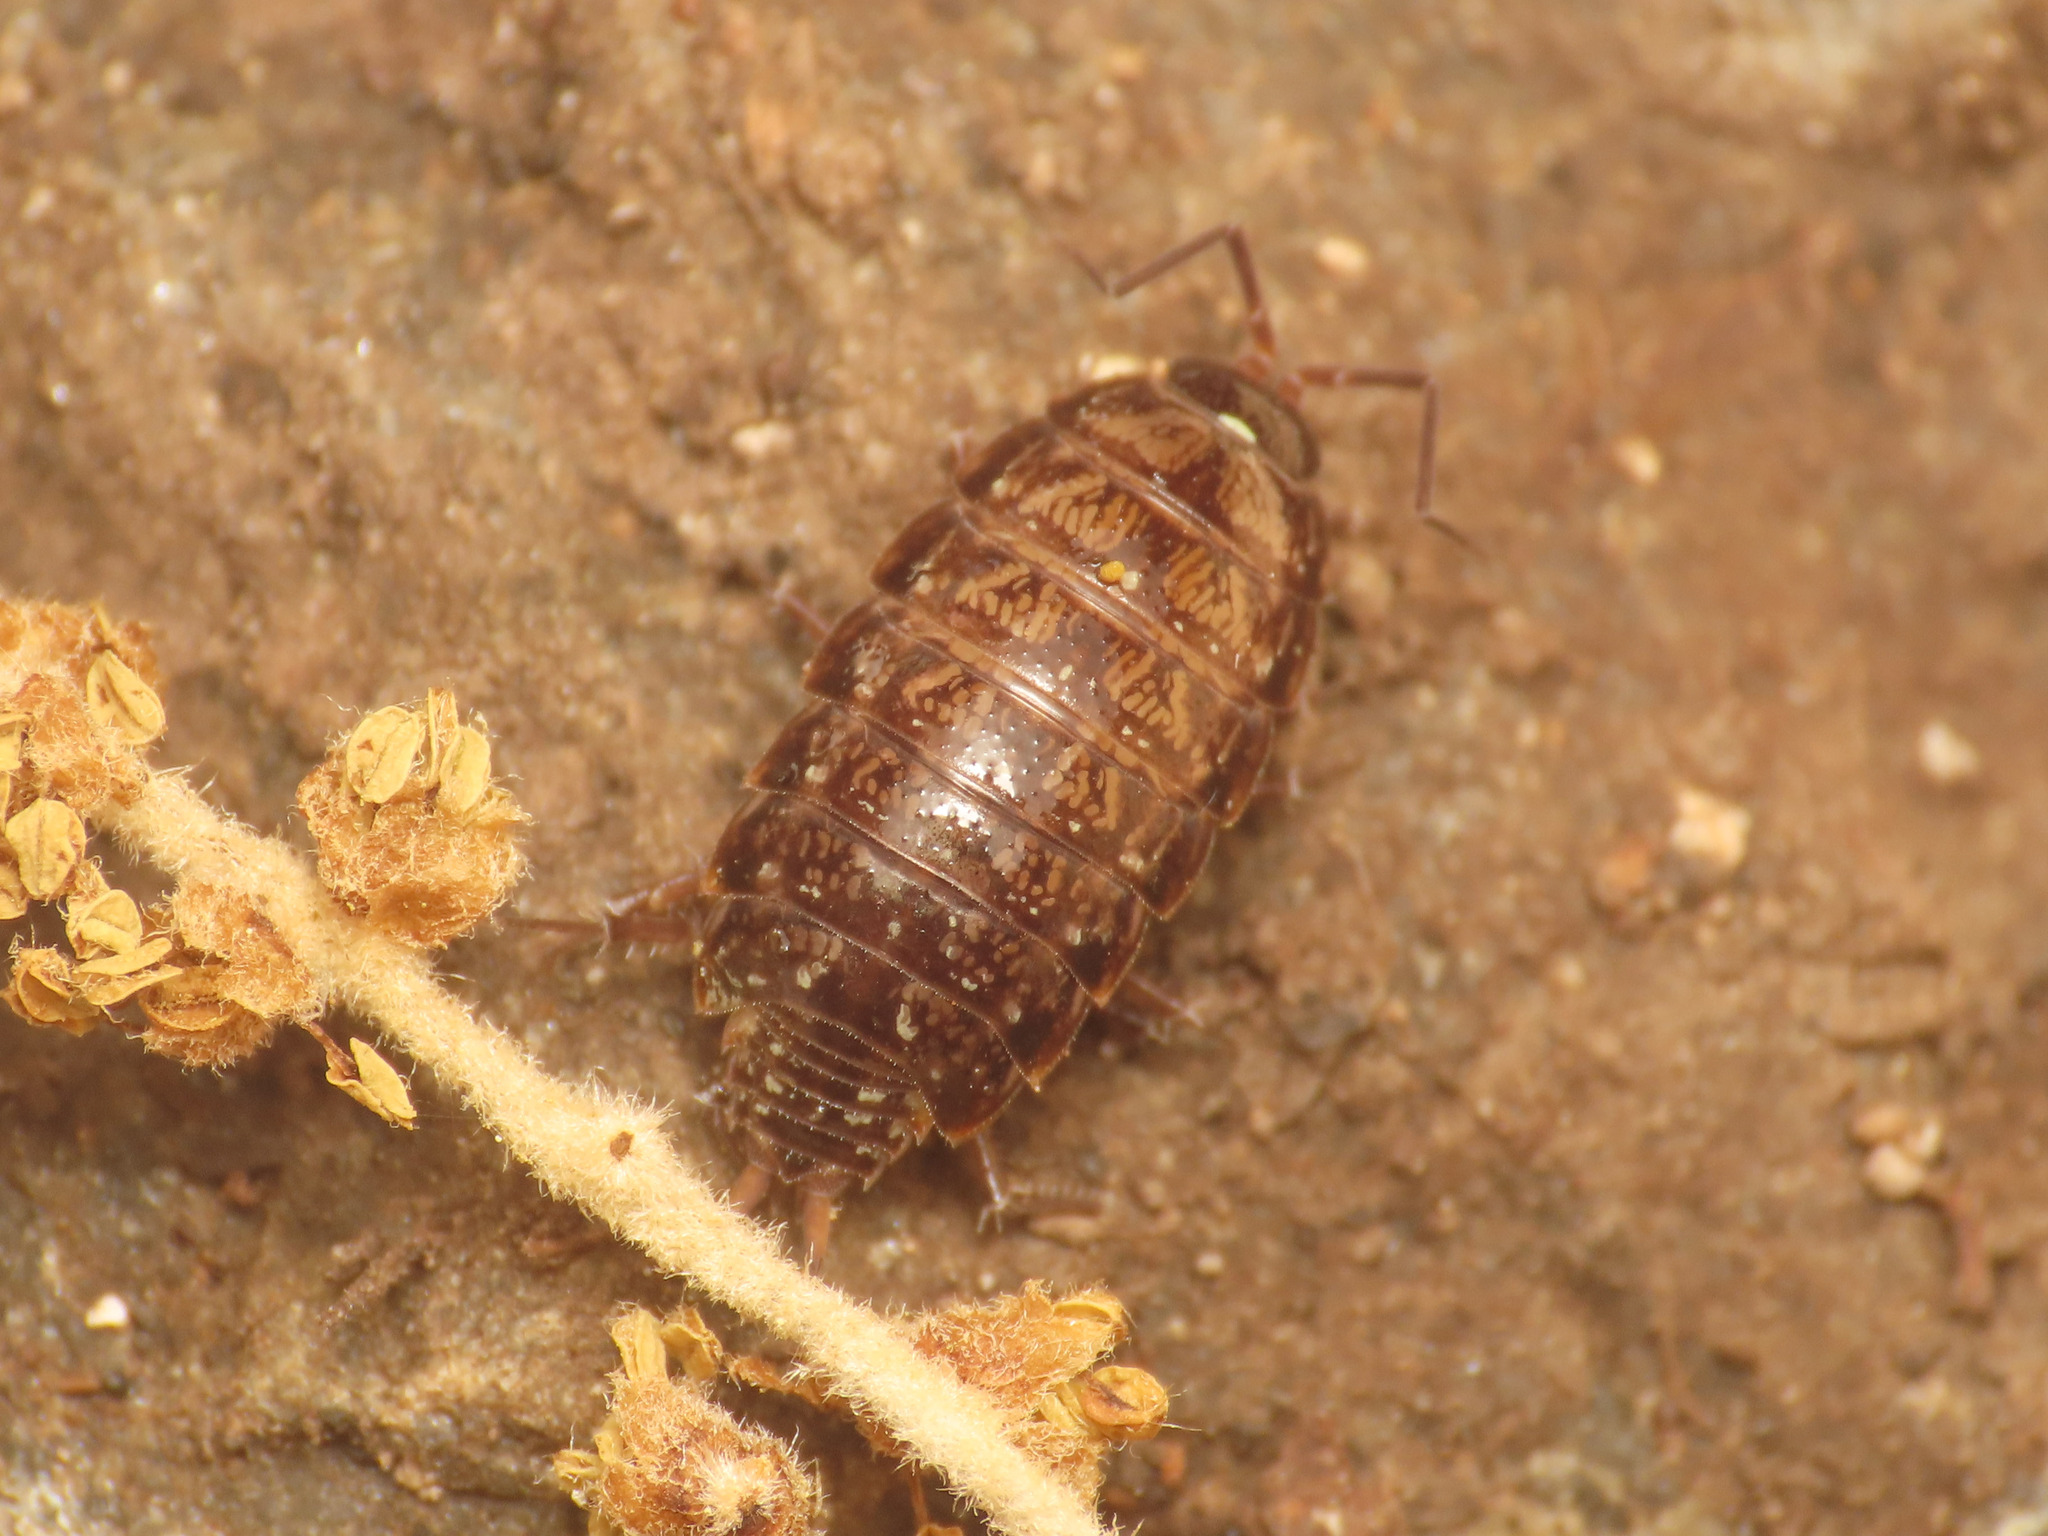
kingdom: Animalia
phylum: Arthropoda
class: Malacostraca
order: Isopoda
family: Philosciidae
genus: Philoscia
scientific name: Philoscia affinis
